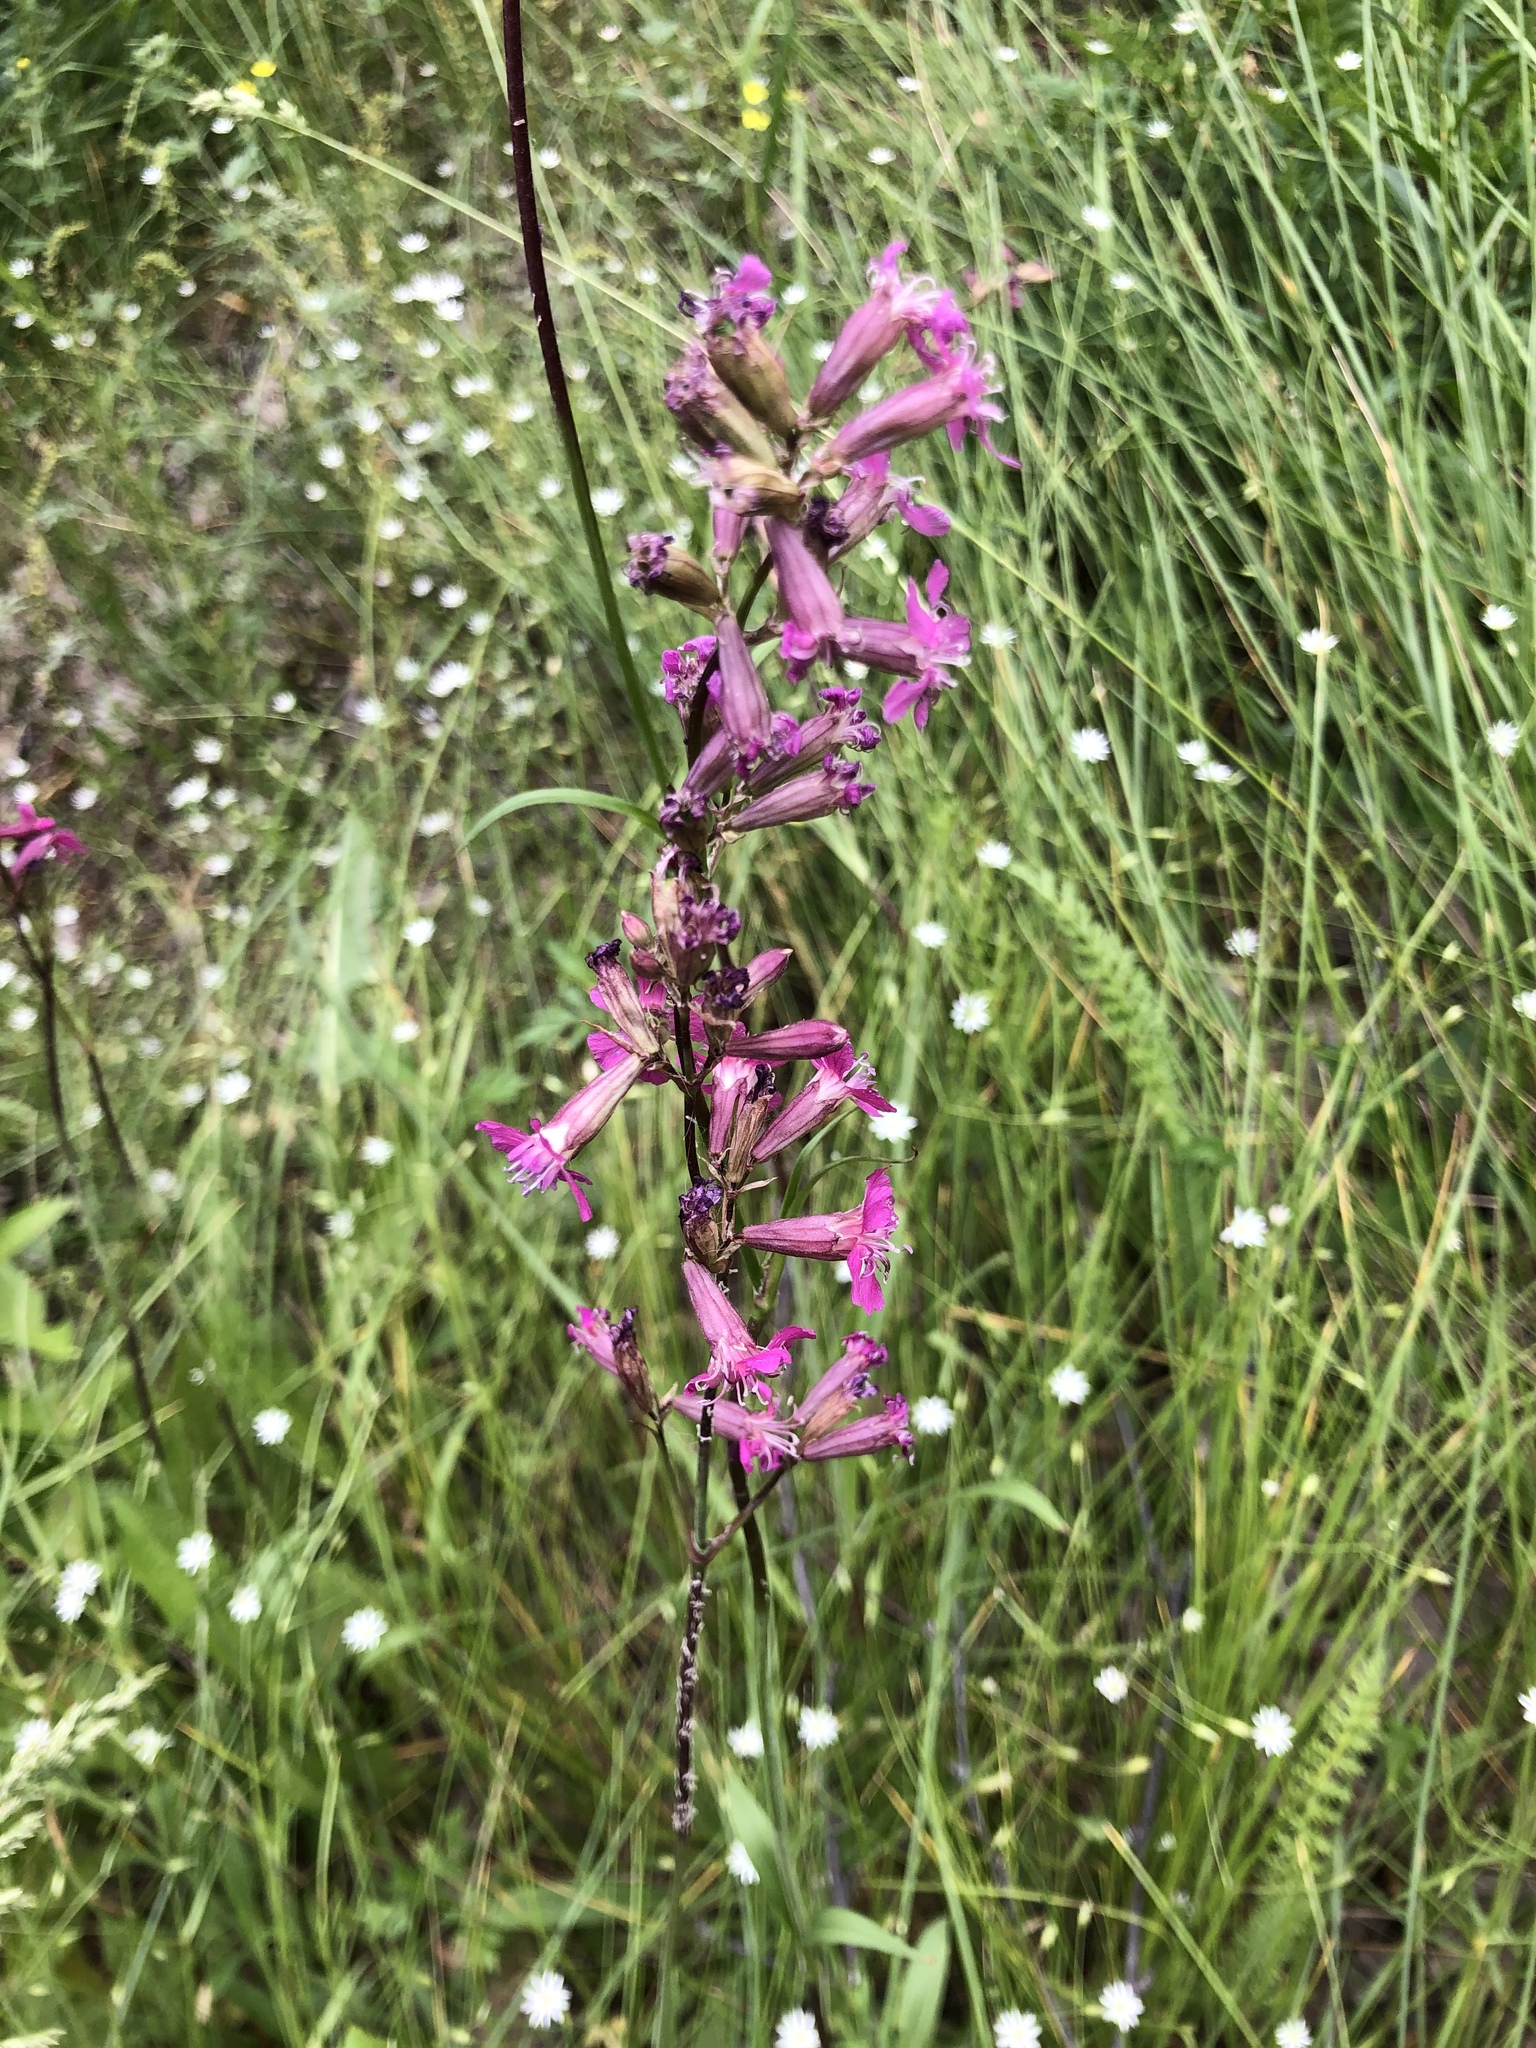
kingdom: Plantae
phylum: Tracheophyta
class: Magnoliopsida
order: Caryophyllales
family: Caryophyllaceae
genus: Viscaria
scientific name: Viscaria vulgaris
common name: Clammy campion
